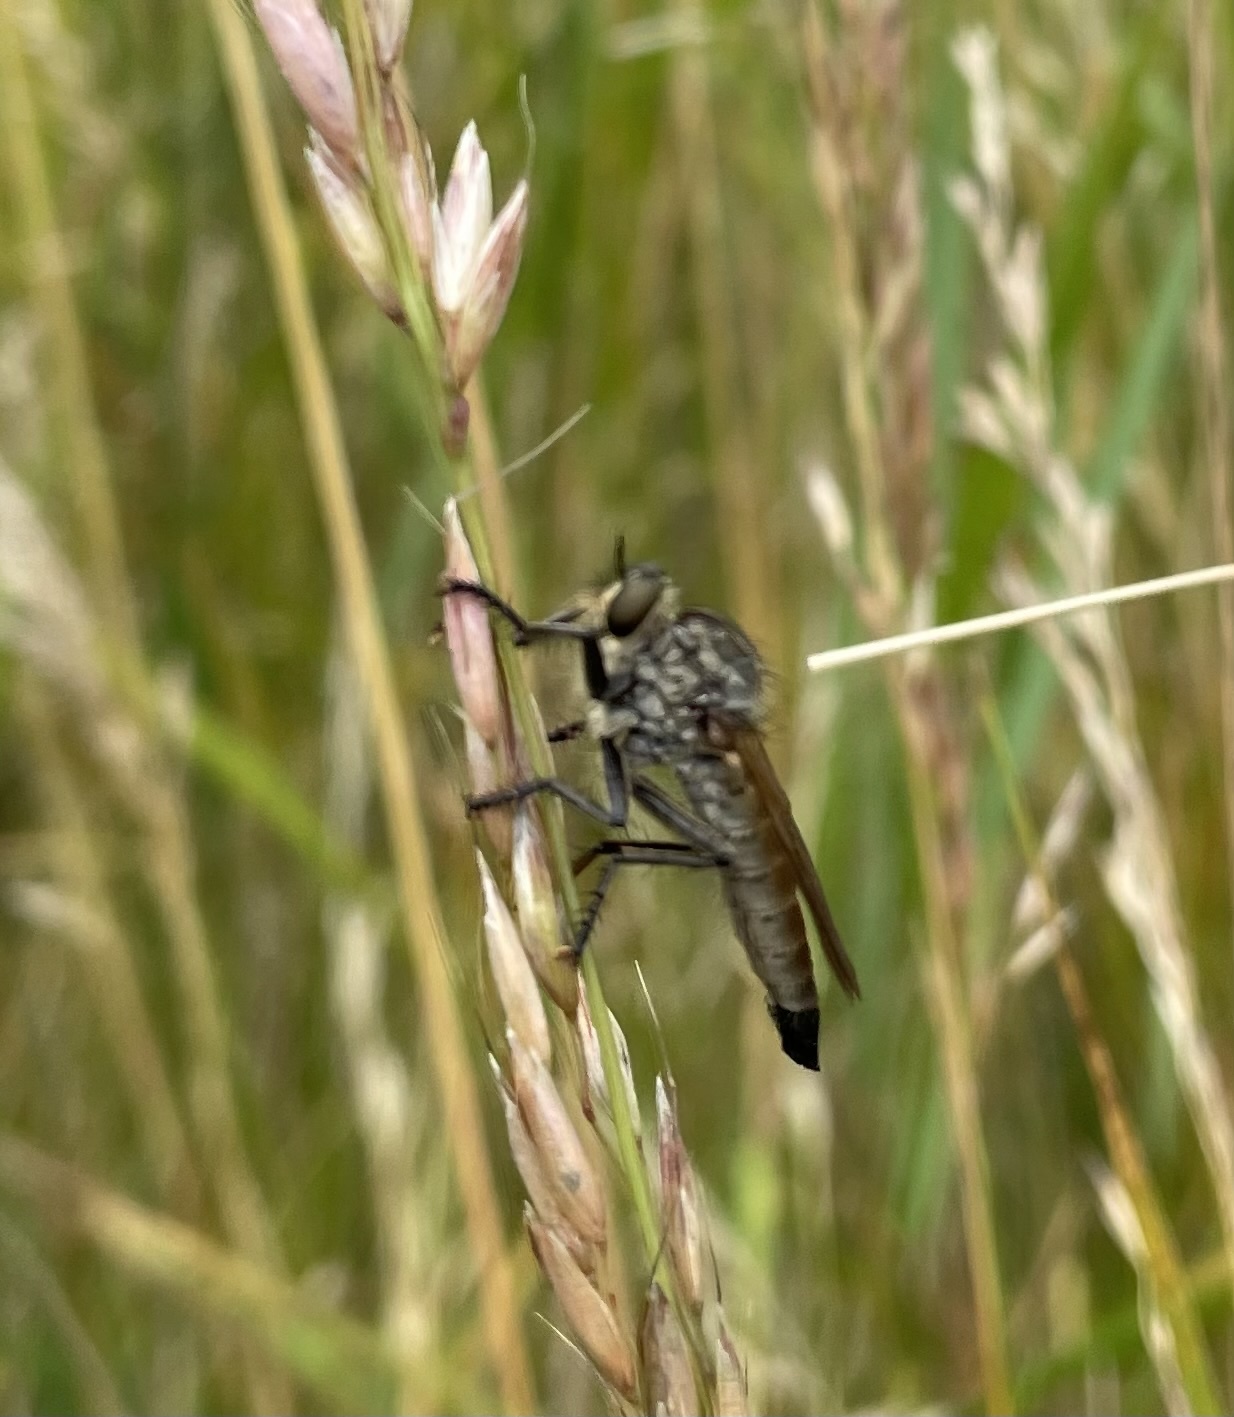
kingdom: Animalia
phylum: Arthropoda
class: Insecta
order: Diptera
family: Asilidae
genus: Eutolmus
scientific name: Eutolmus rufibarbis
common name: Golden-tabbed robberfly
